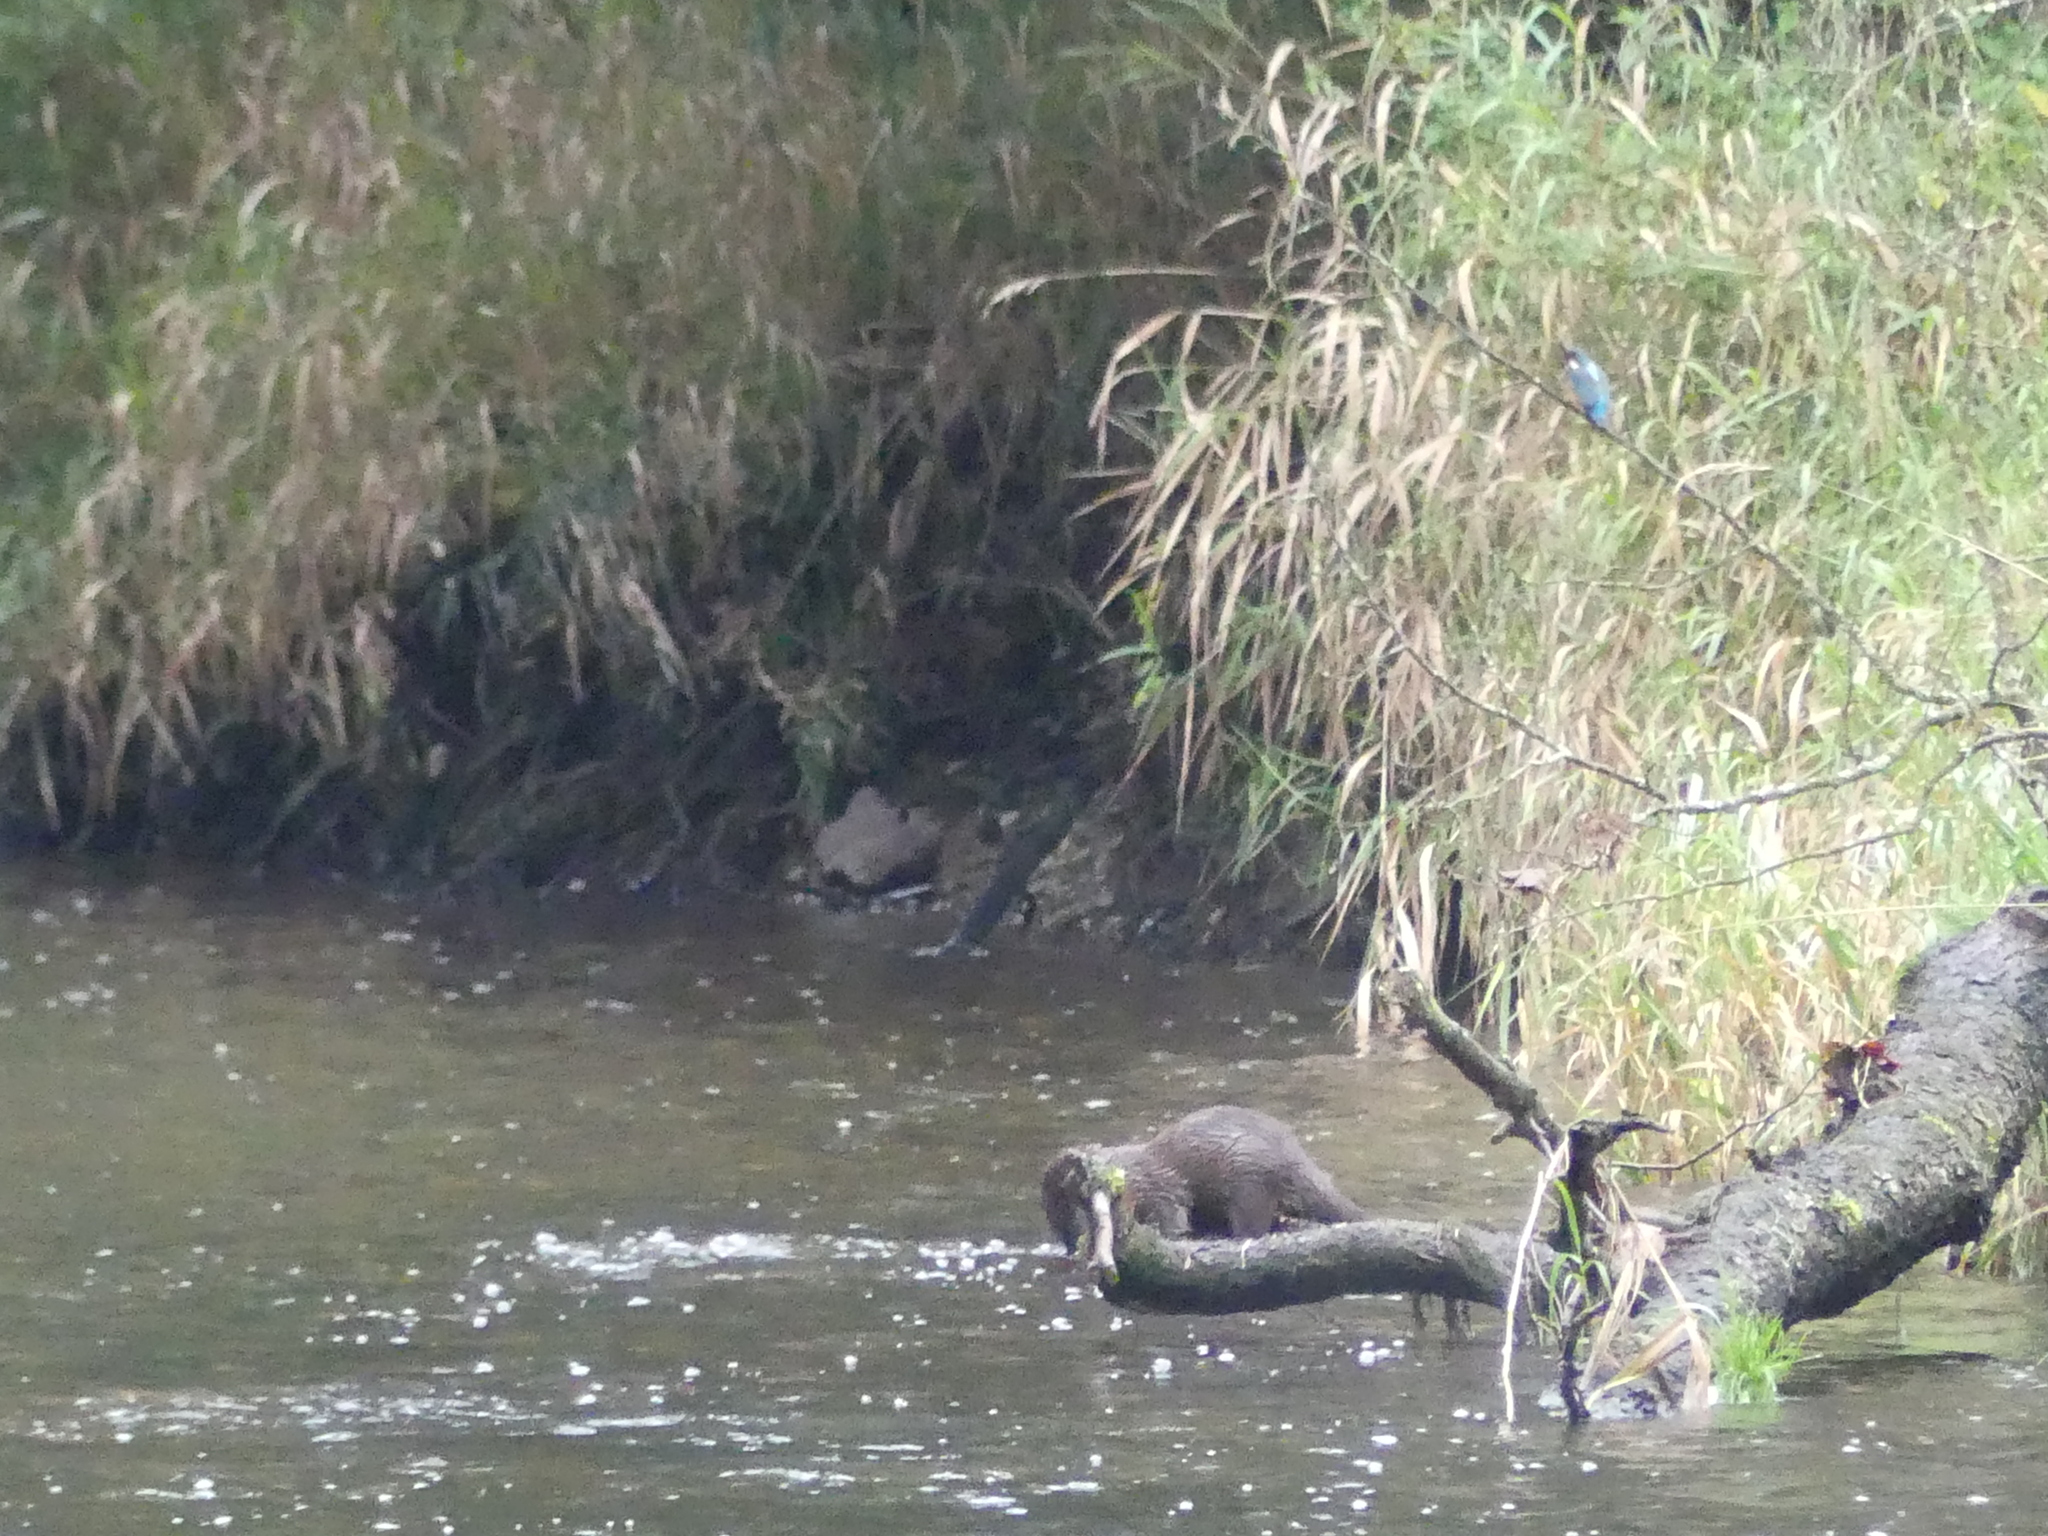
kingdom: Animalia
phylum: Chordata
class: Mammalia
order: Carnivora
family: Mustelidae
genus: Lutra
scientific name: Lutra lutra
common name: European otter
